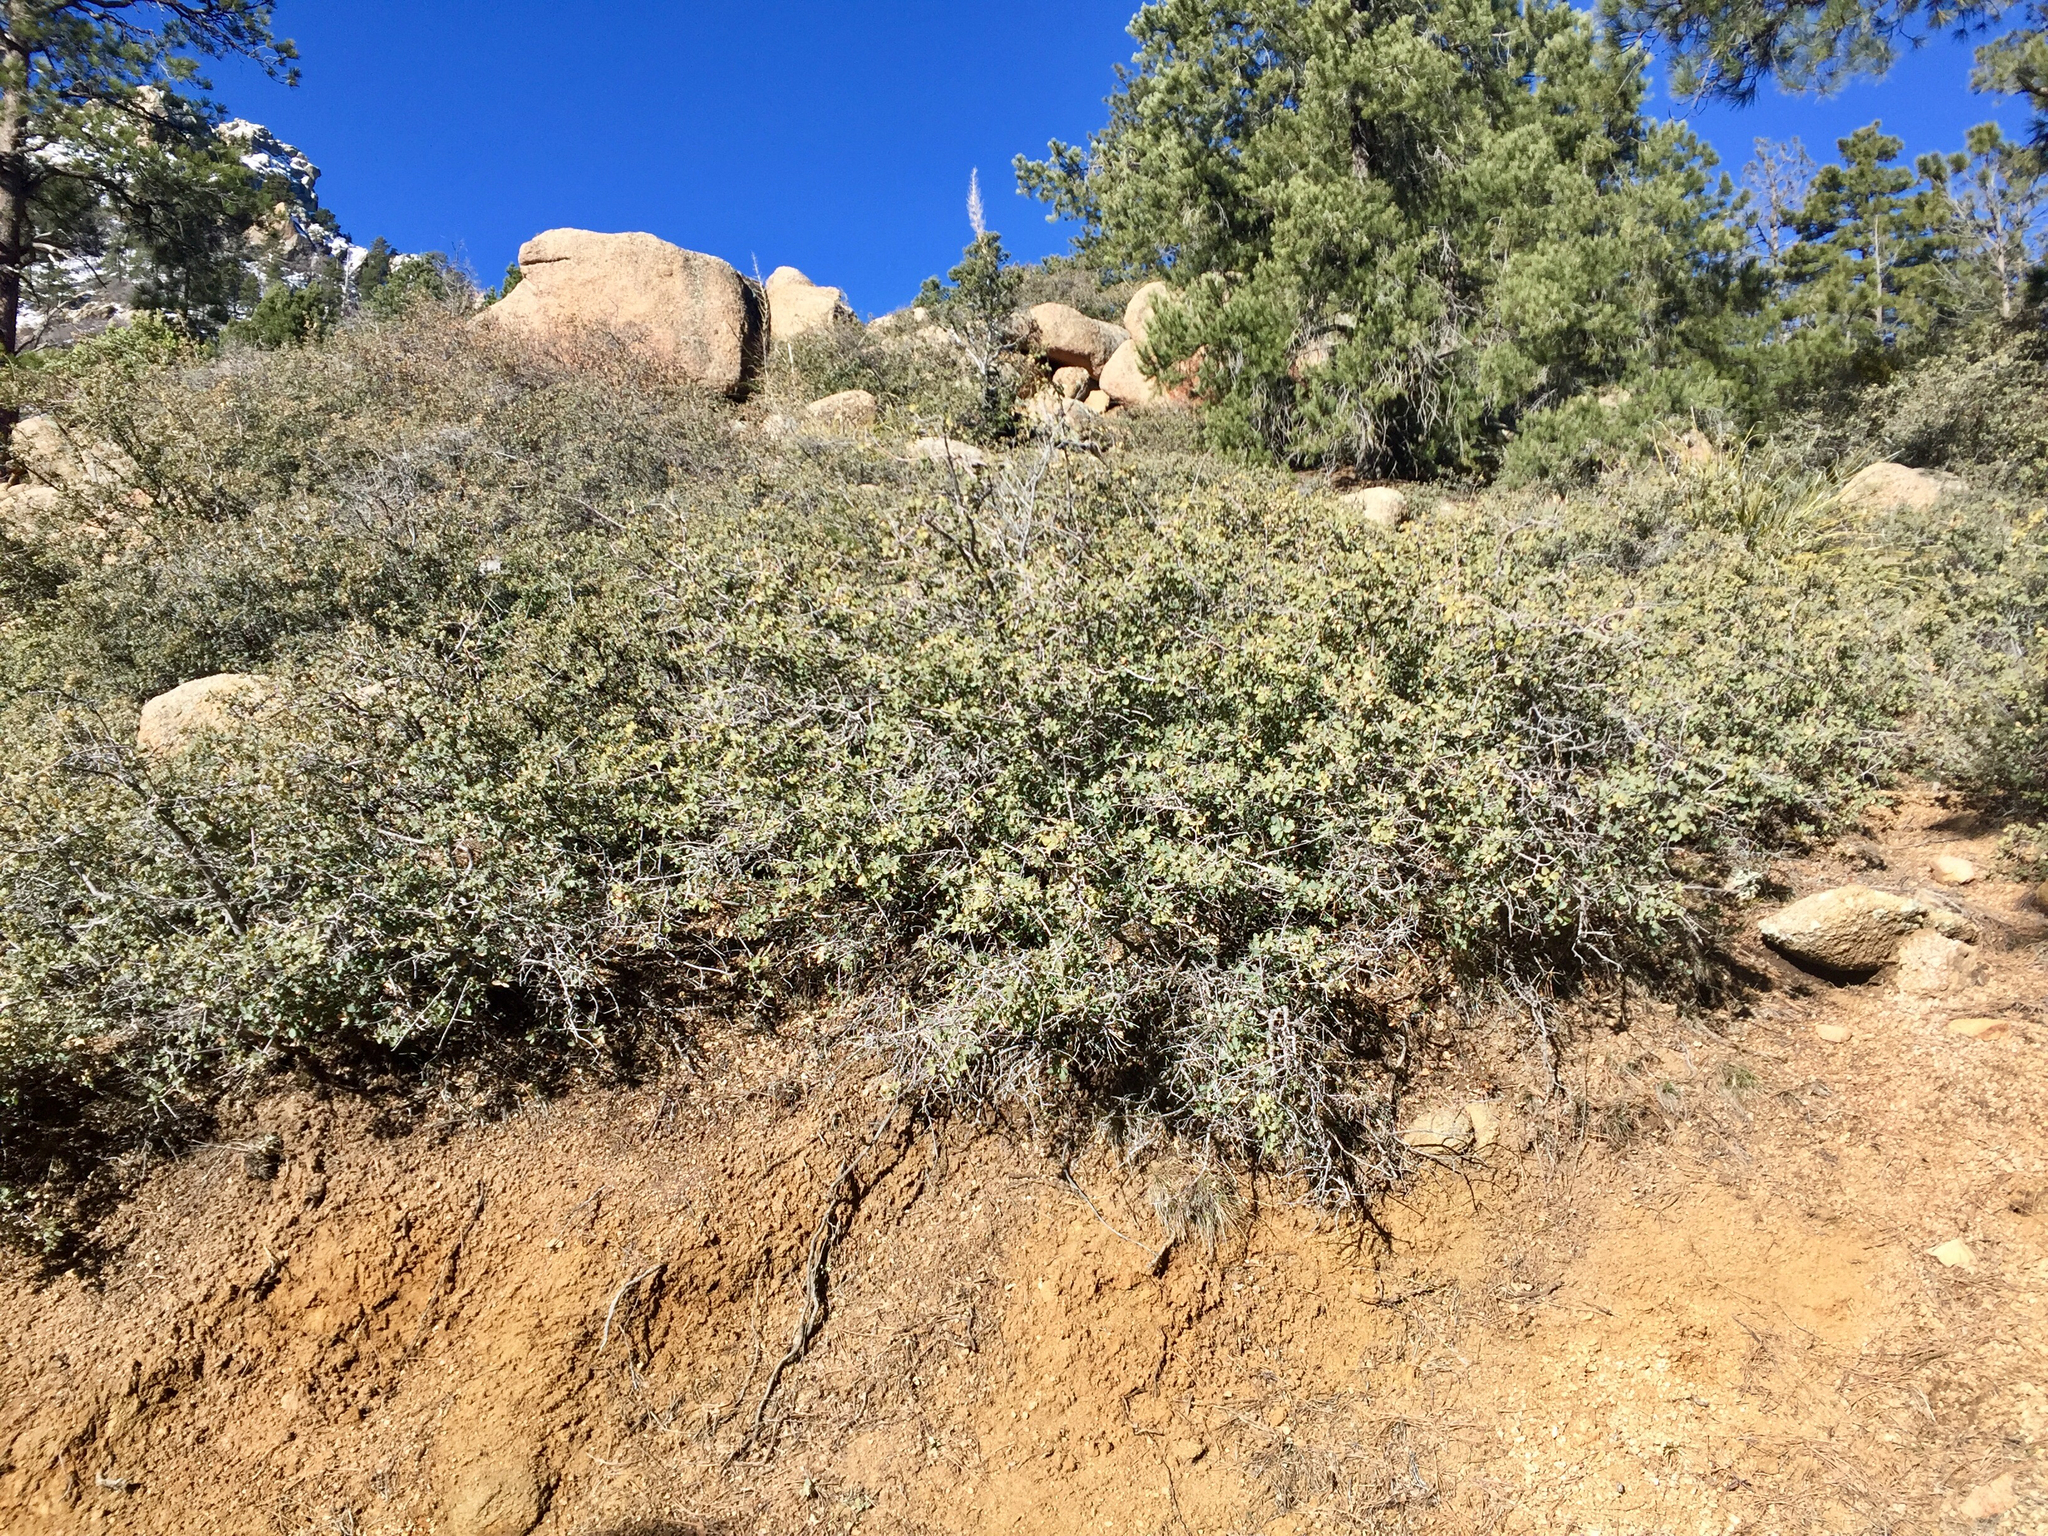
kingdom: Plantae
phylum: Tracheophyta
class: Magnoliopsida
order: Fagales
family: Fagaceae
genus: Quercus
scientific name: Quercus turbinella
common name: Sonoran scrub oak
